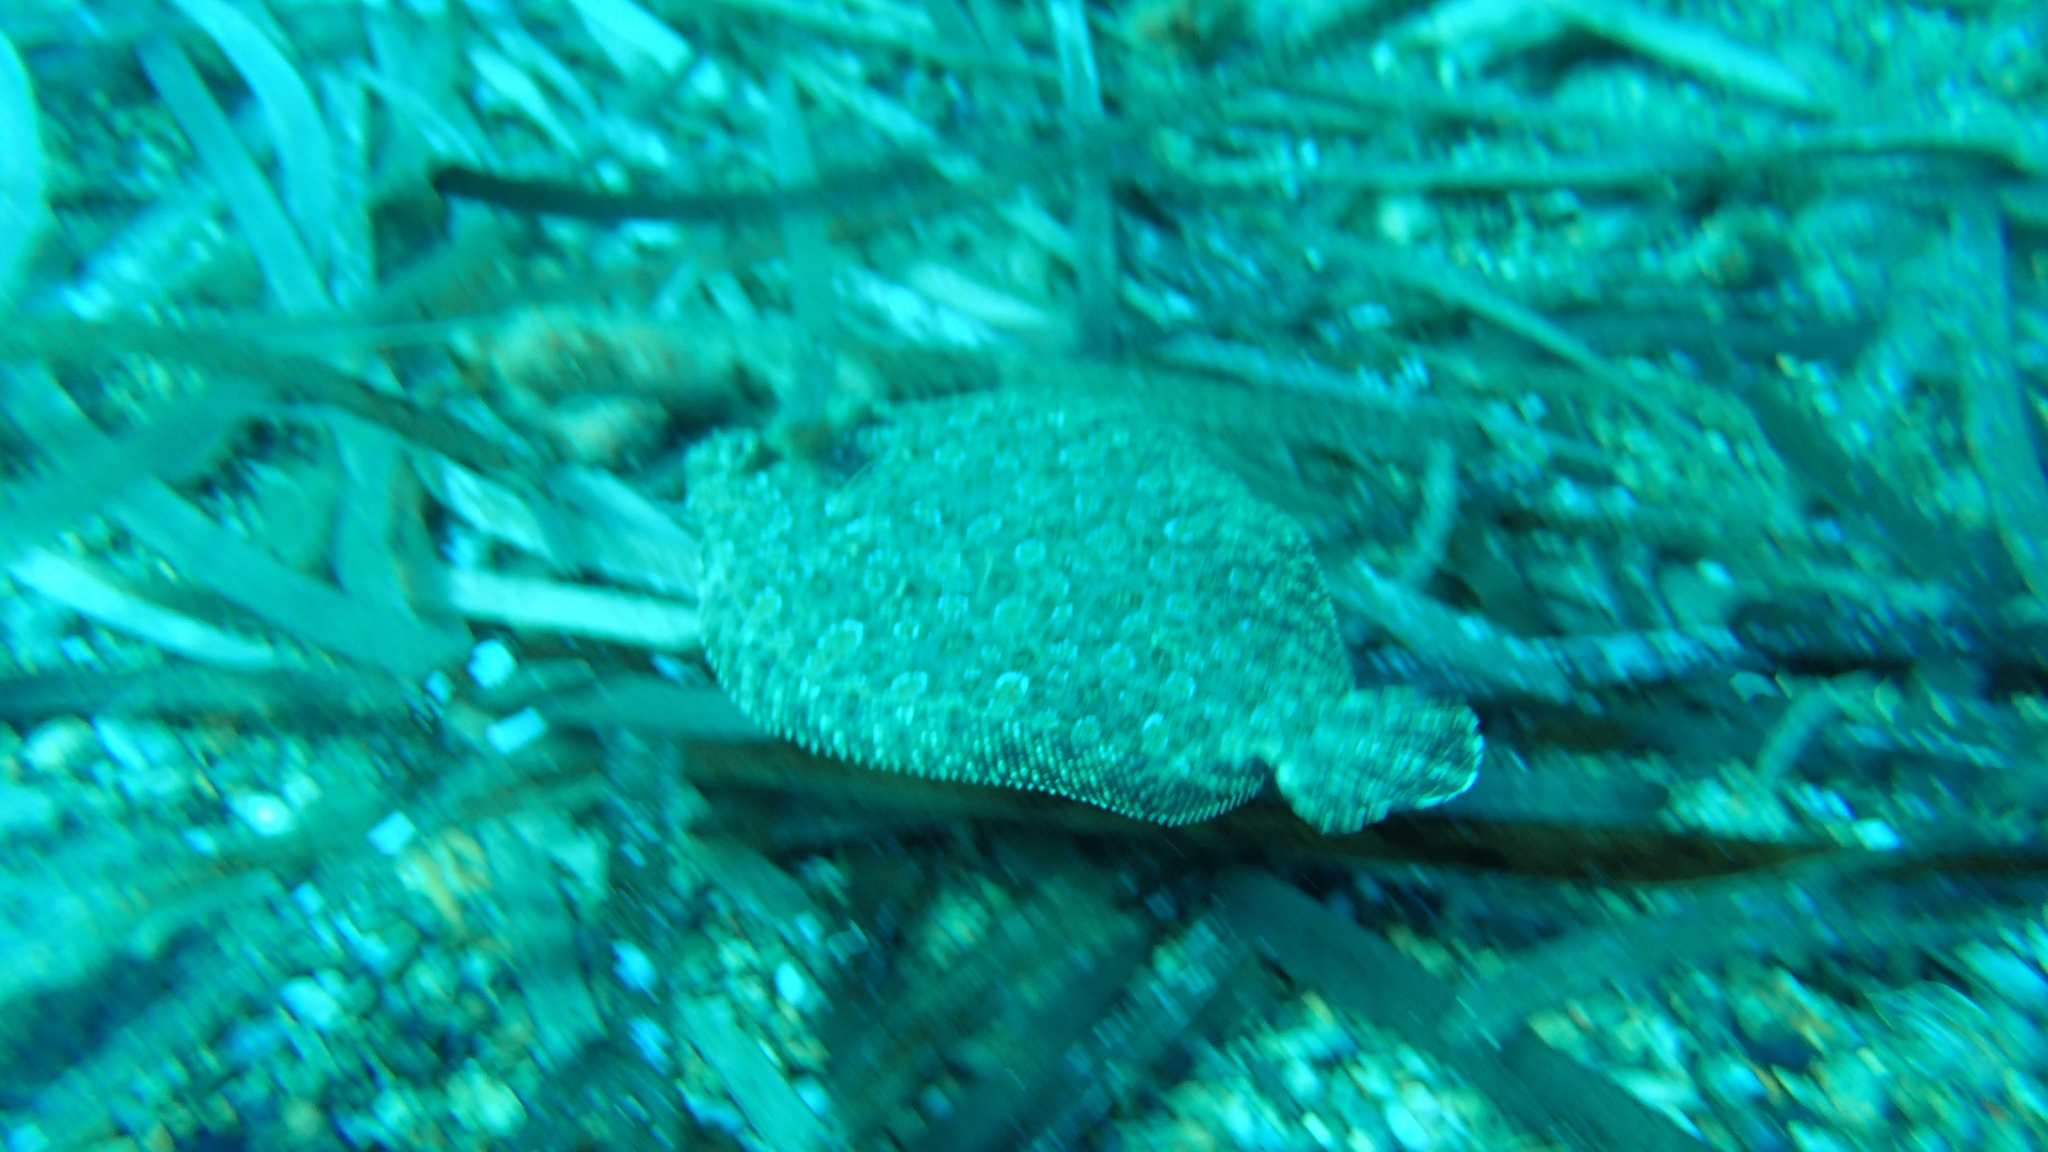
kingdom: Animalia
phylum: Chordata
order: Pleuronectiformes
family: Bothidae
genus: Bothus
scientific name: Bothus podas
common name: Wide-eyed flounder
